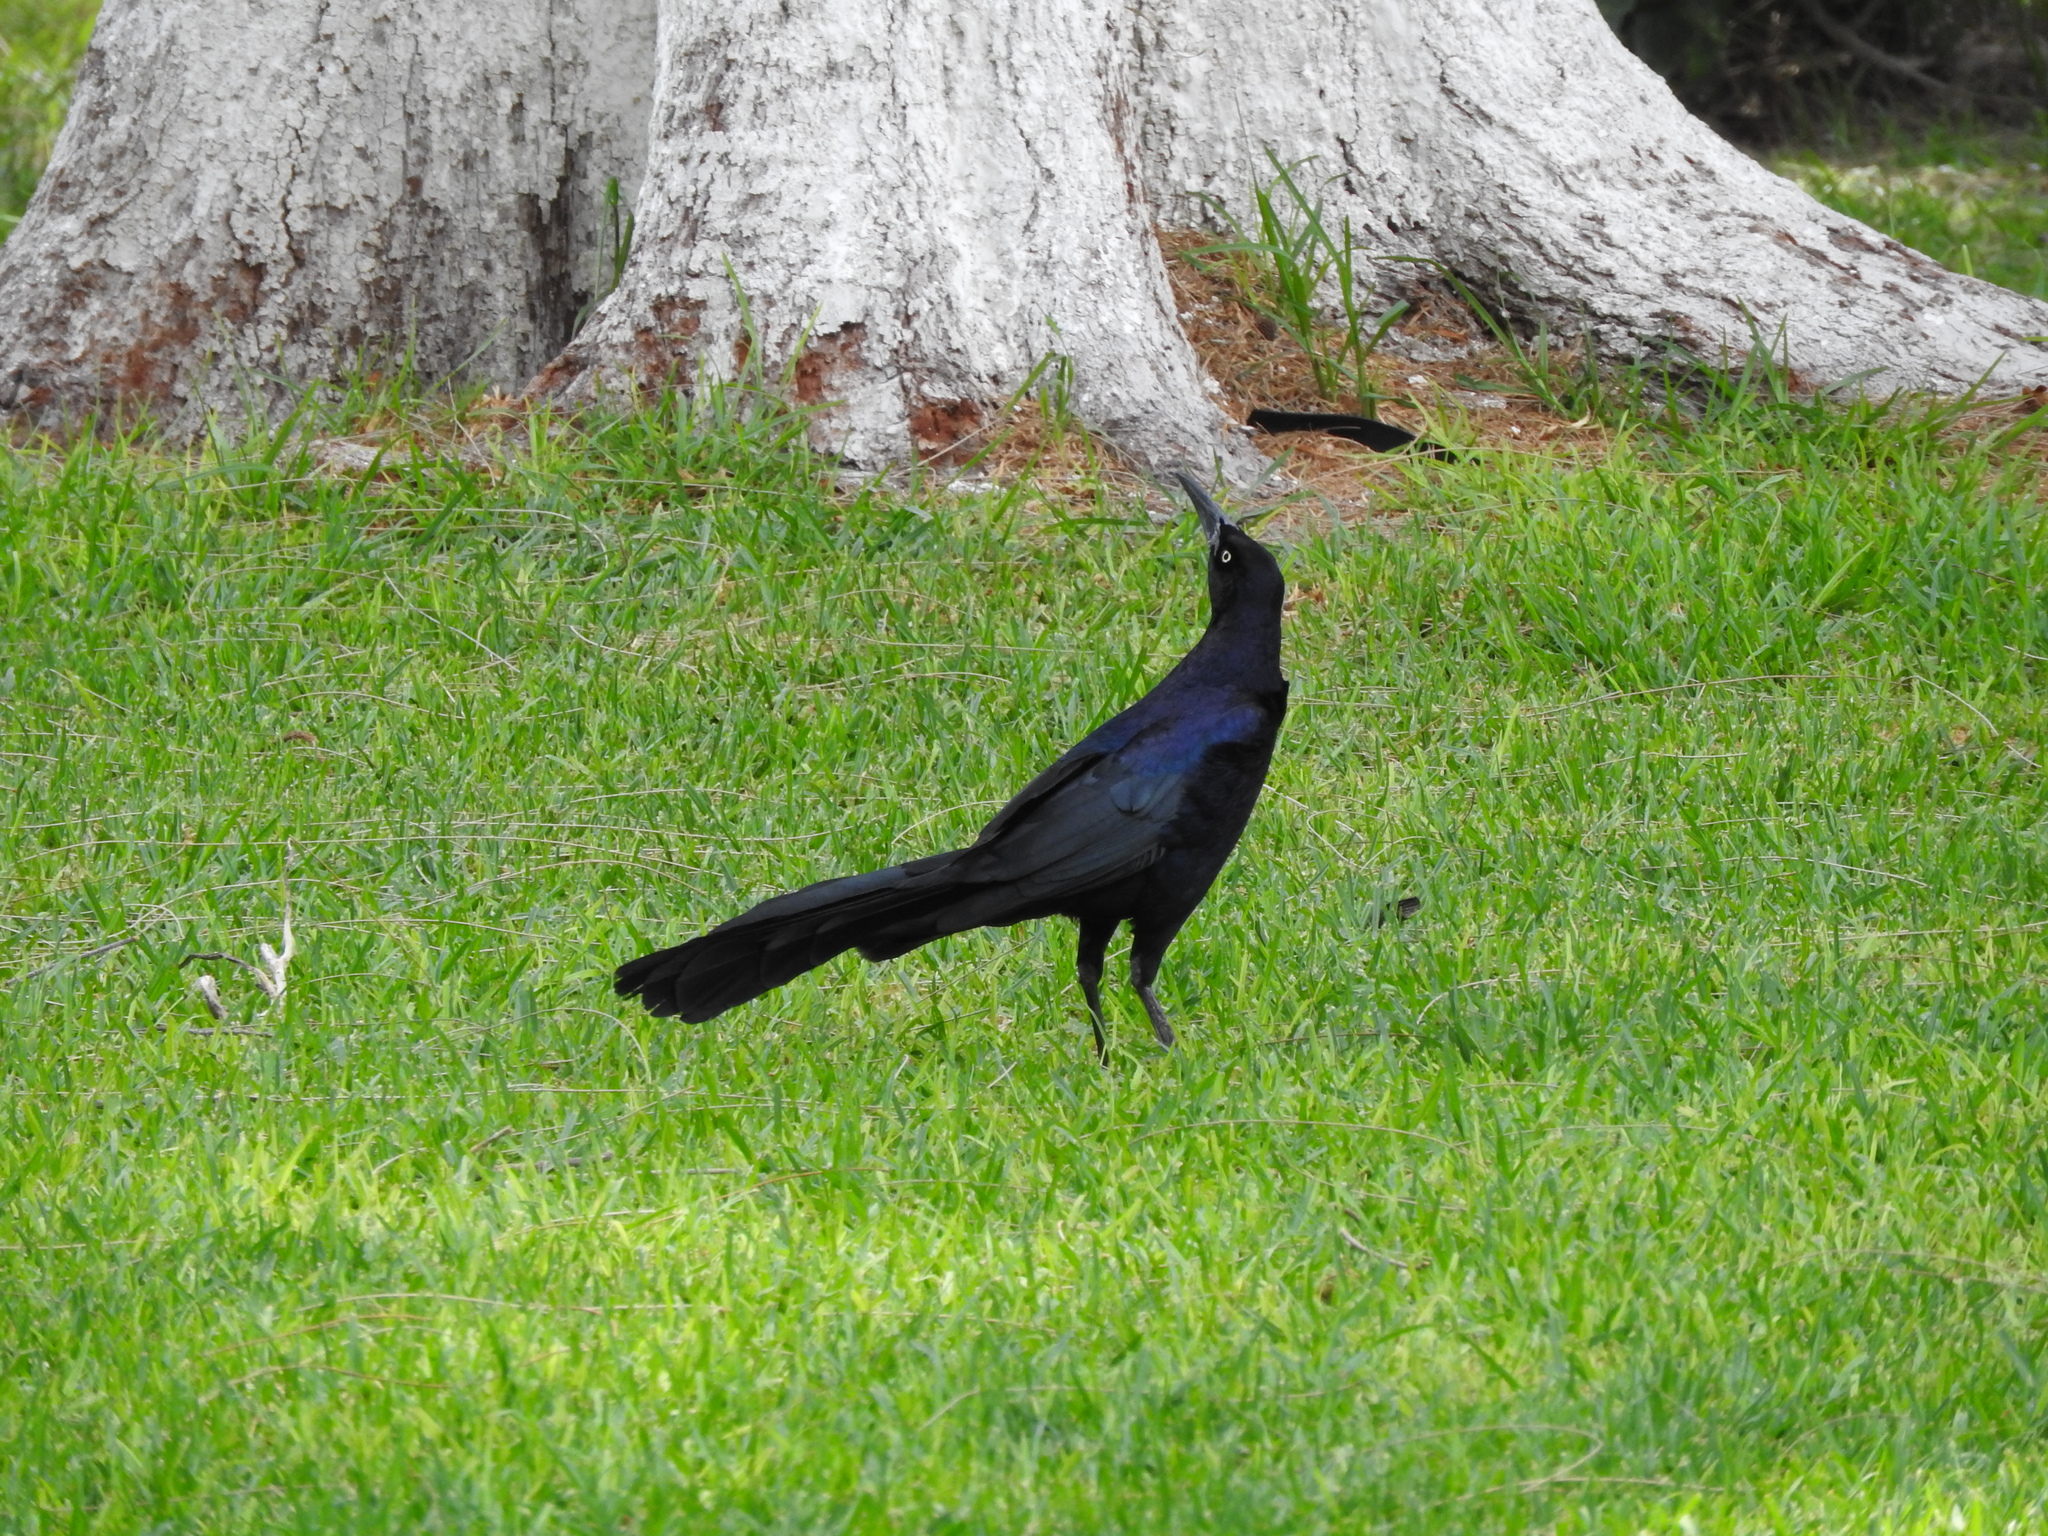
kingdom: Animalia
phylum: Chordata
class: Aves
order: Passeriformes
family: Icteridae
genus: Quiscalus
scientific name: Quiscalus mexicanus
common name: Great-tailed grackle
